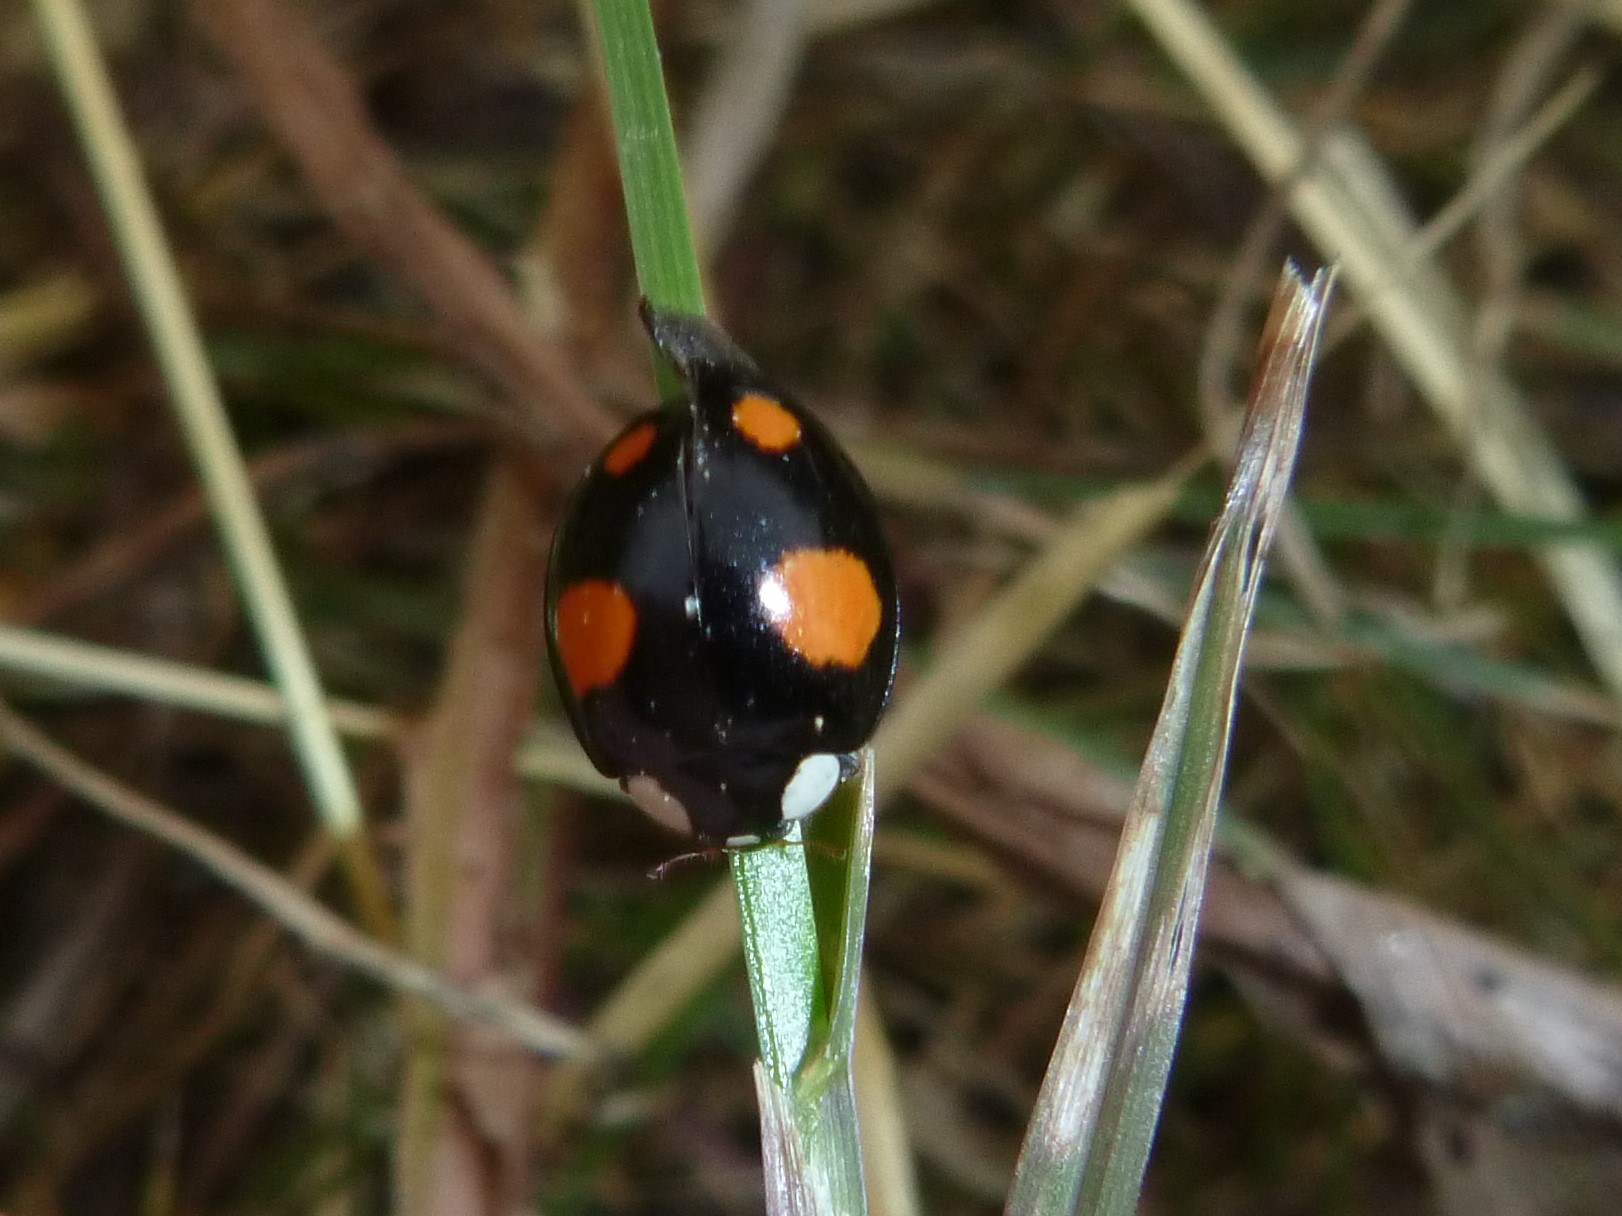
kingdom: Animalia
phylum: Arthropoda
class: Insecta
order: Coleoptera
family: Coccinellidae
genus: Harmonia
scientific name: Harmonia axyridis
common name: Harlequin ladybird
